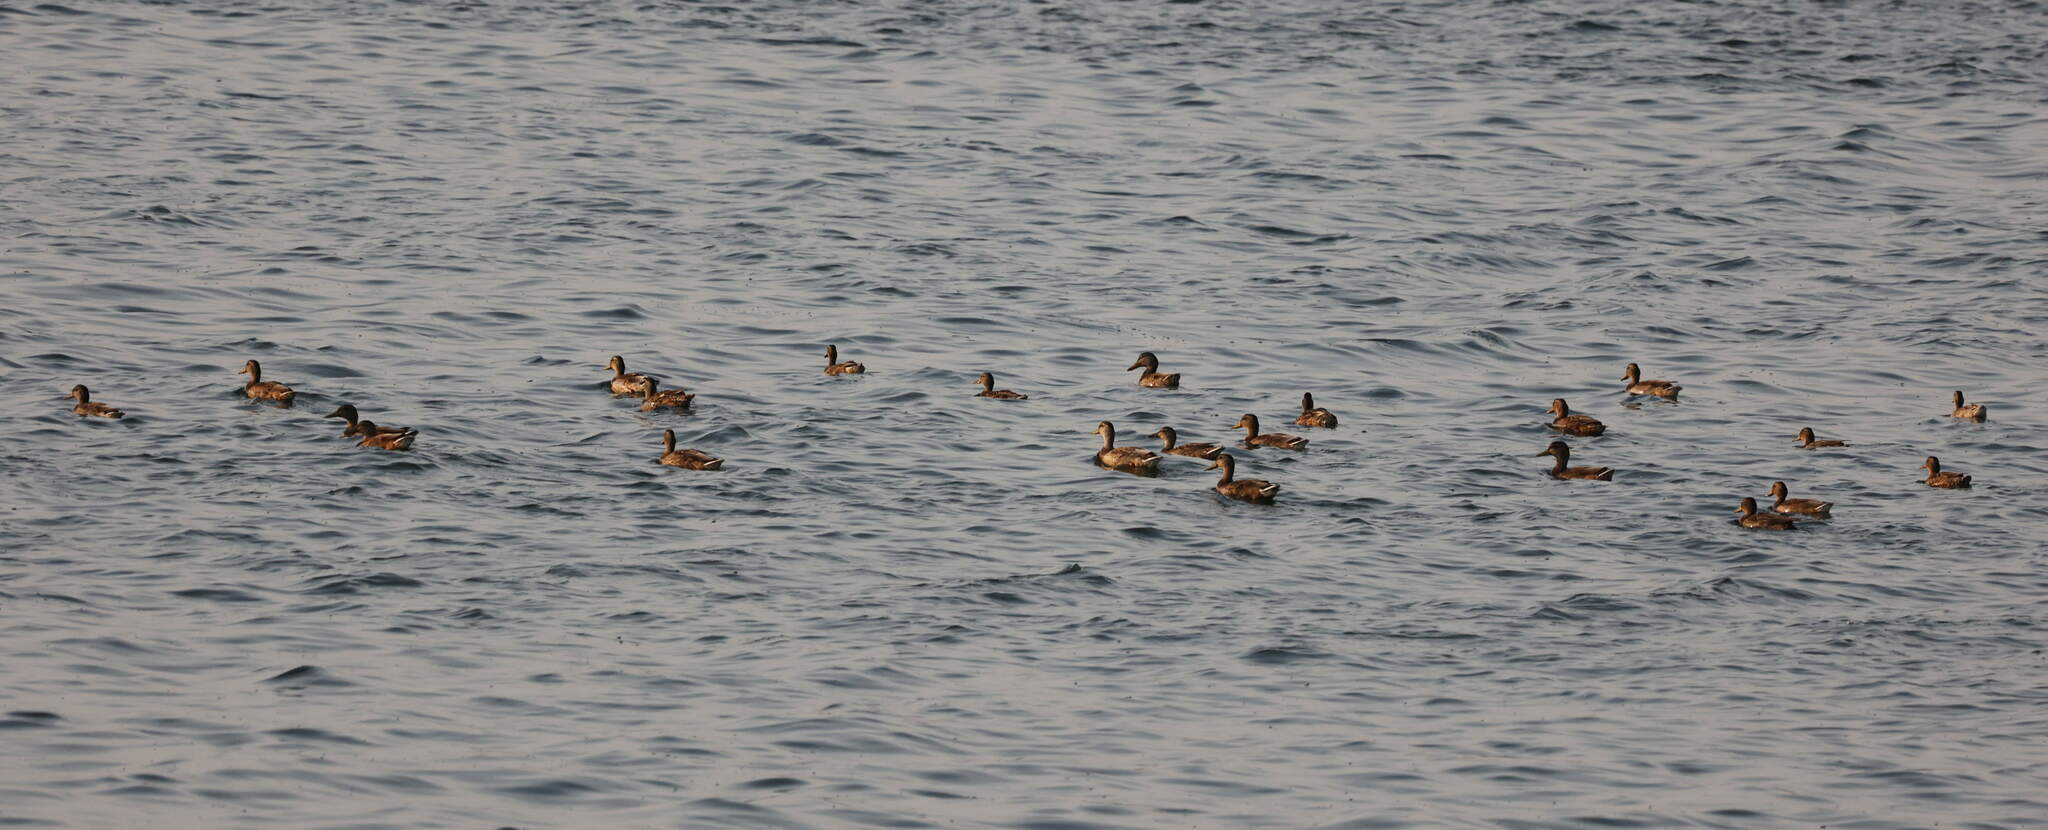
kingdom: Animalia
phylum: Chordata
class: Aves
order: Anseriformes
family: Anatidae
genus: Anas
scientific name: Anas platyrhynchos
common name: Mallard
